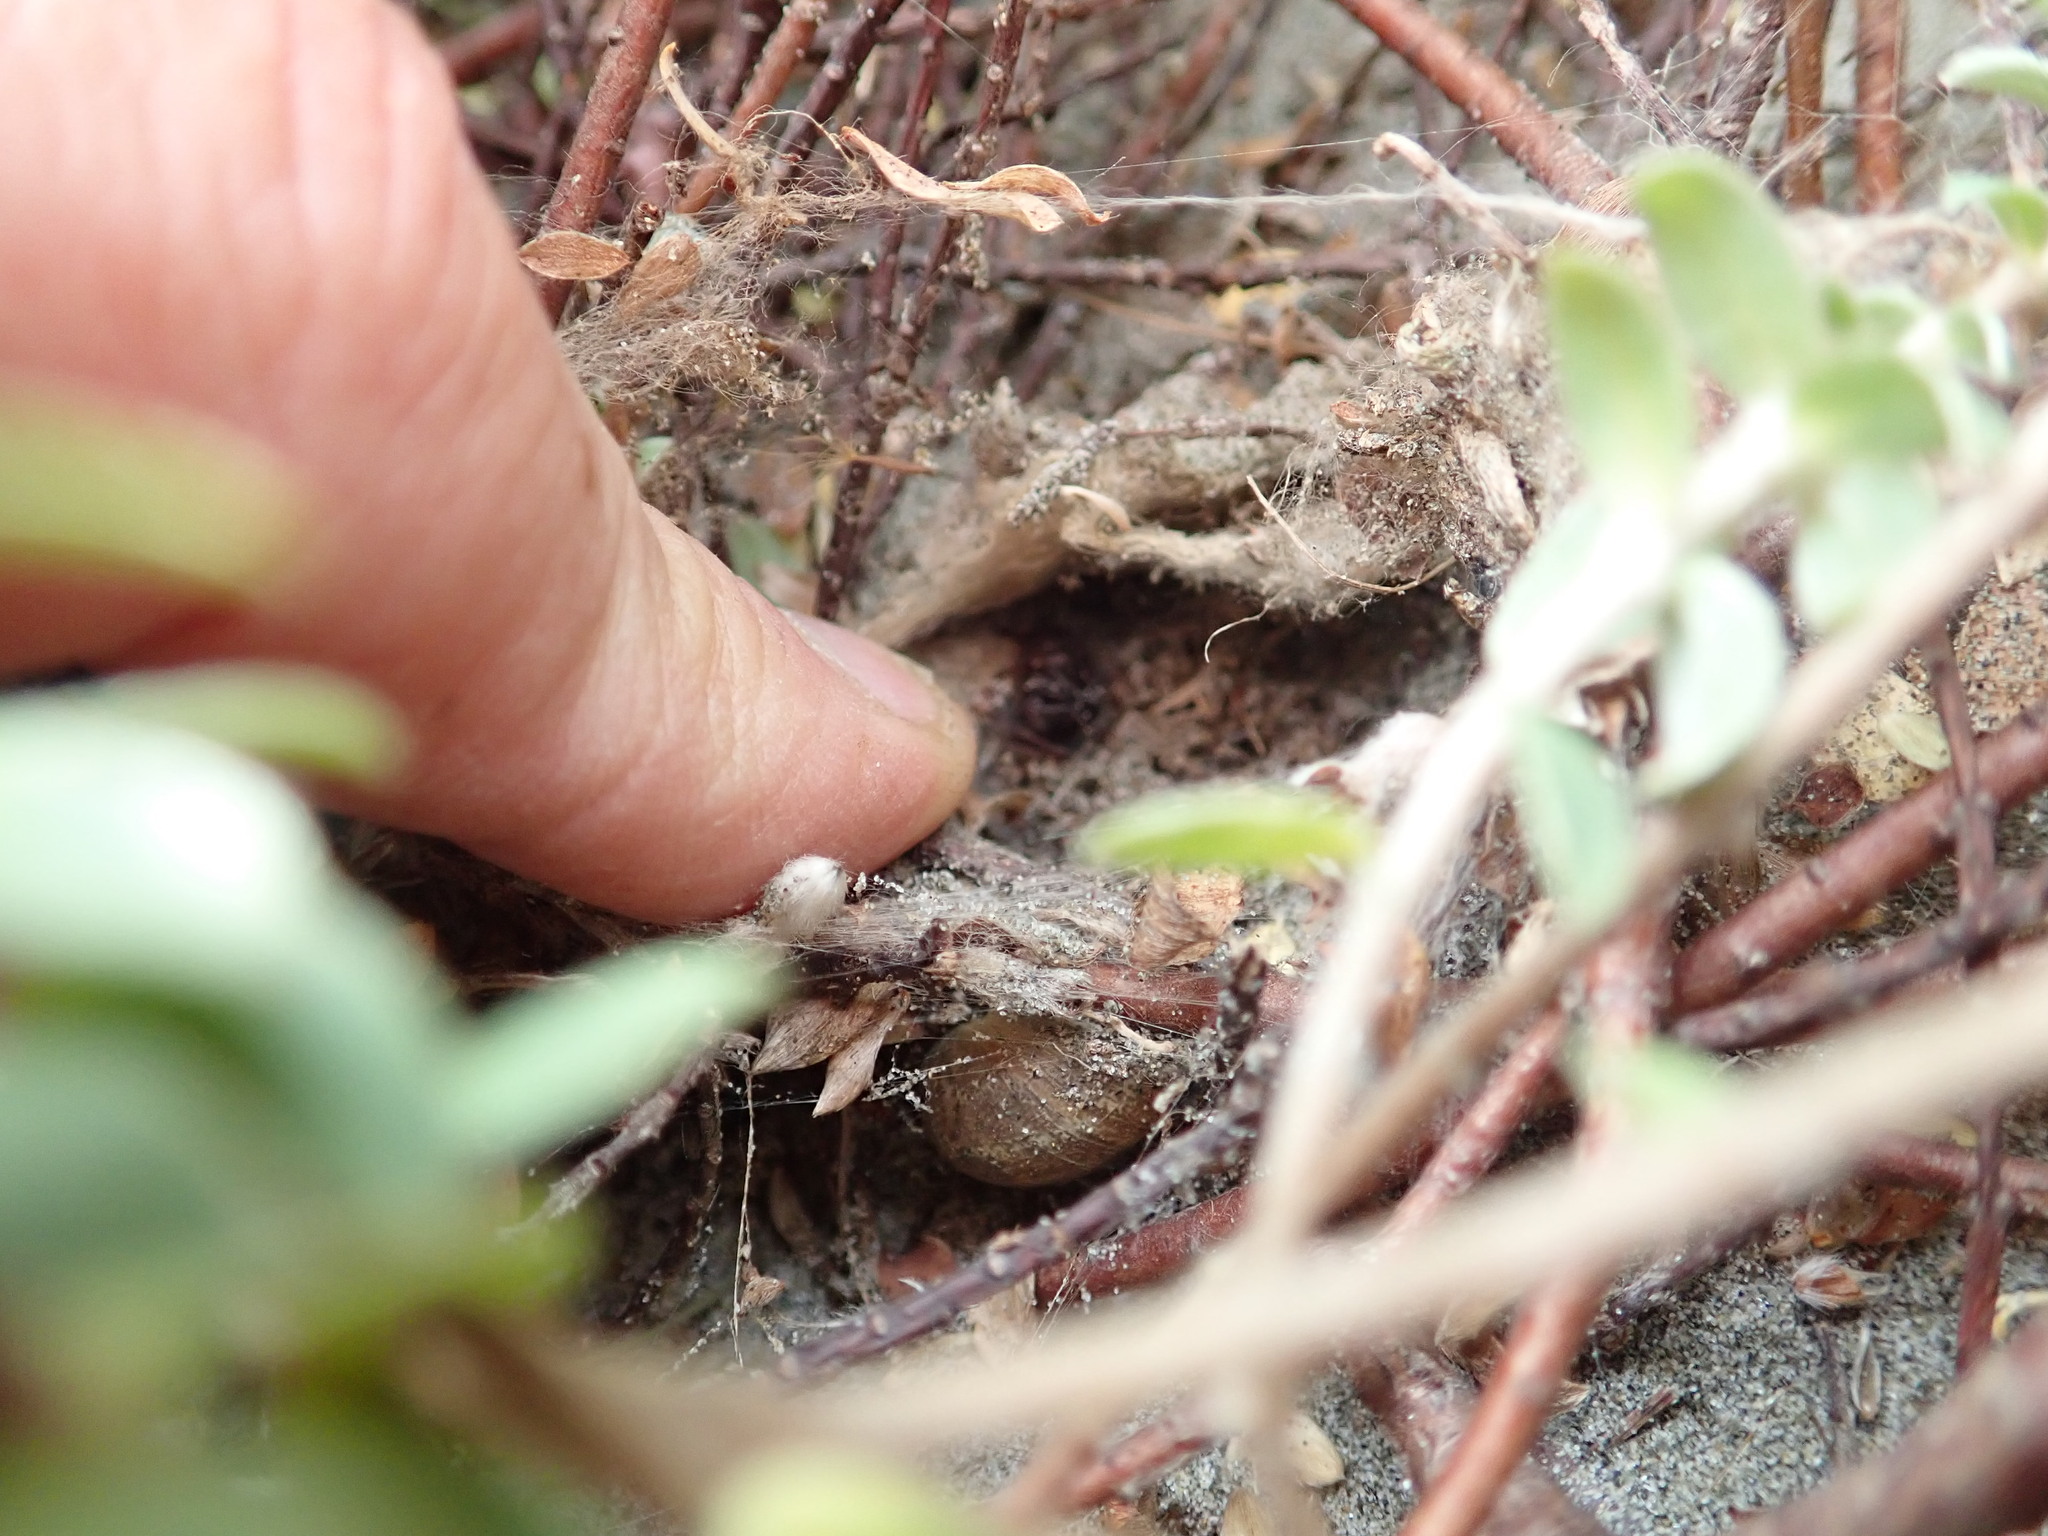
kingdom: Animalia
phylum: Arthropoda
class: Arachnida
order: Araneae
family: Theridiidae
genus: Latrodectus
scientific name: Latrodectus katipo
